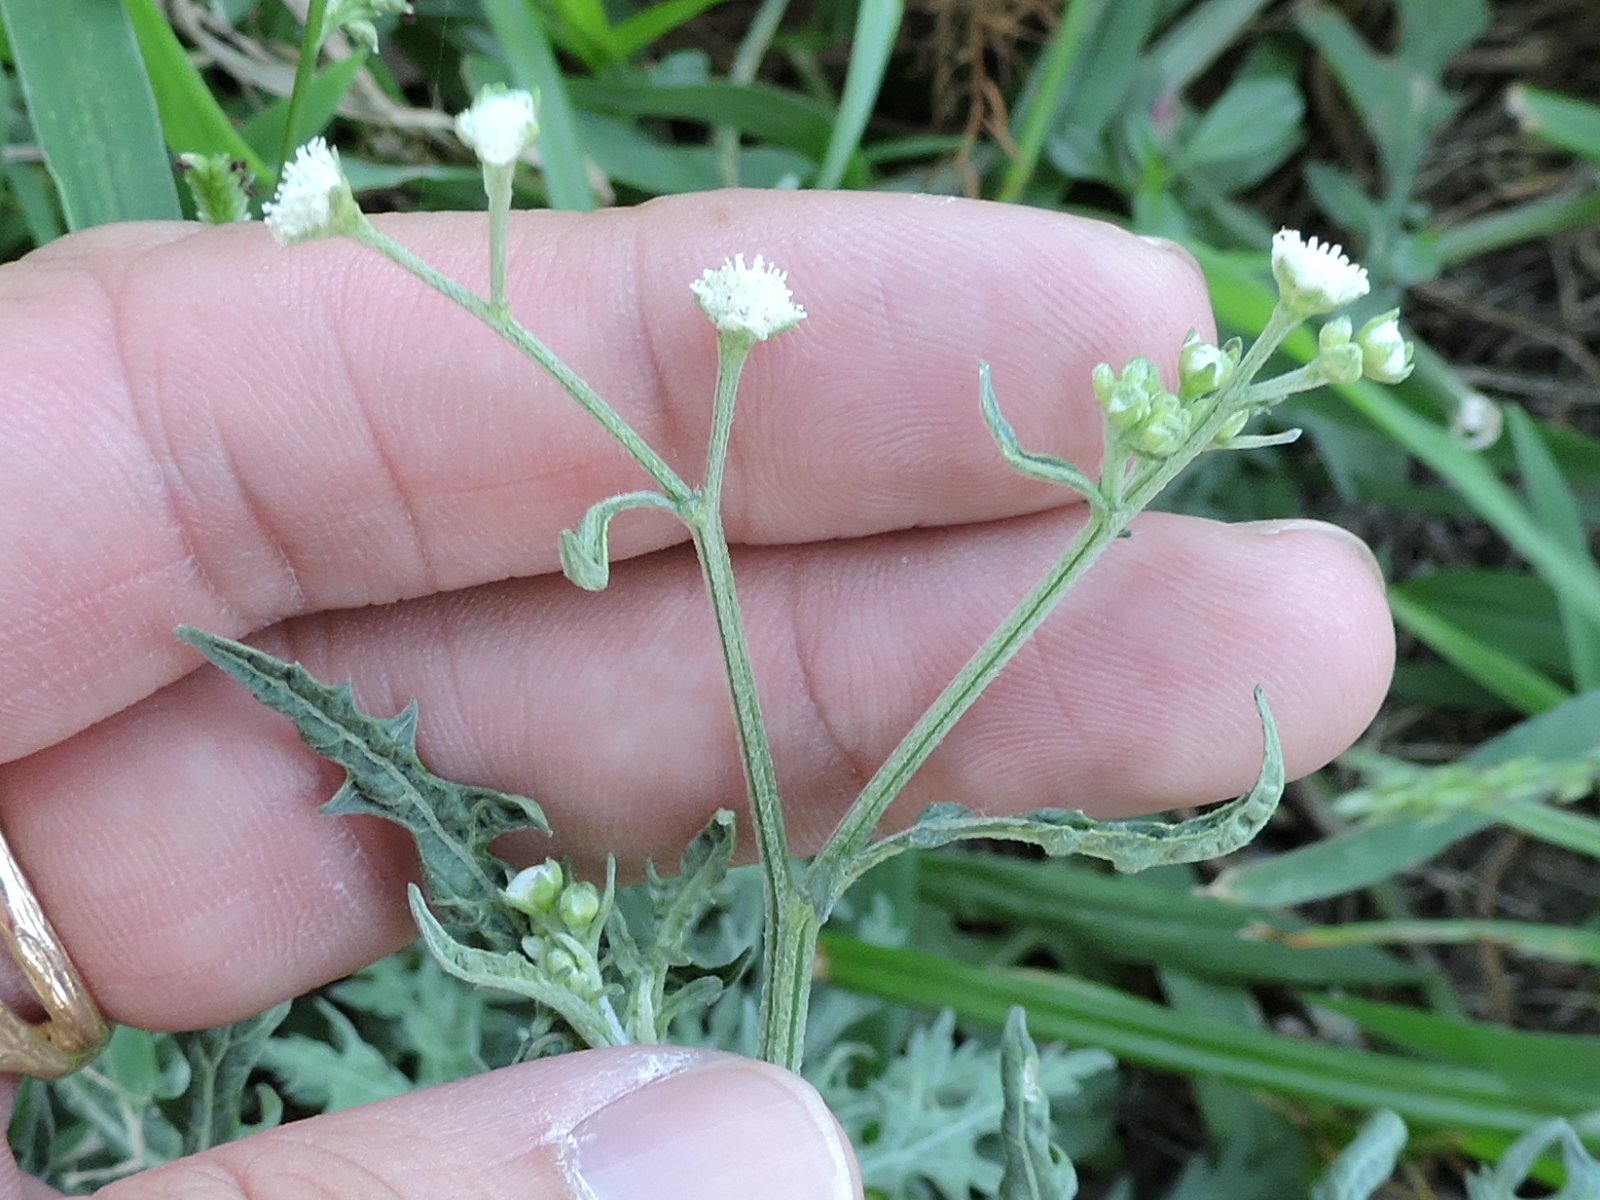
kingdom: Plantae
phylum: Tracheophyta
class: Magnoliopsida
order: Asterales
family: Asteraceae
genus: Parthenium
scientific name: Parthenium hysterophorus
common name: Santa maria feverfew
